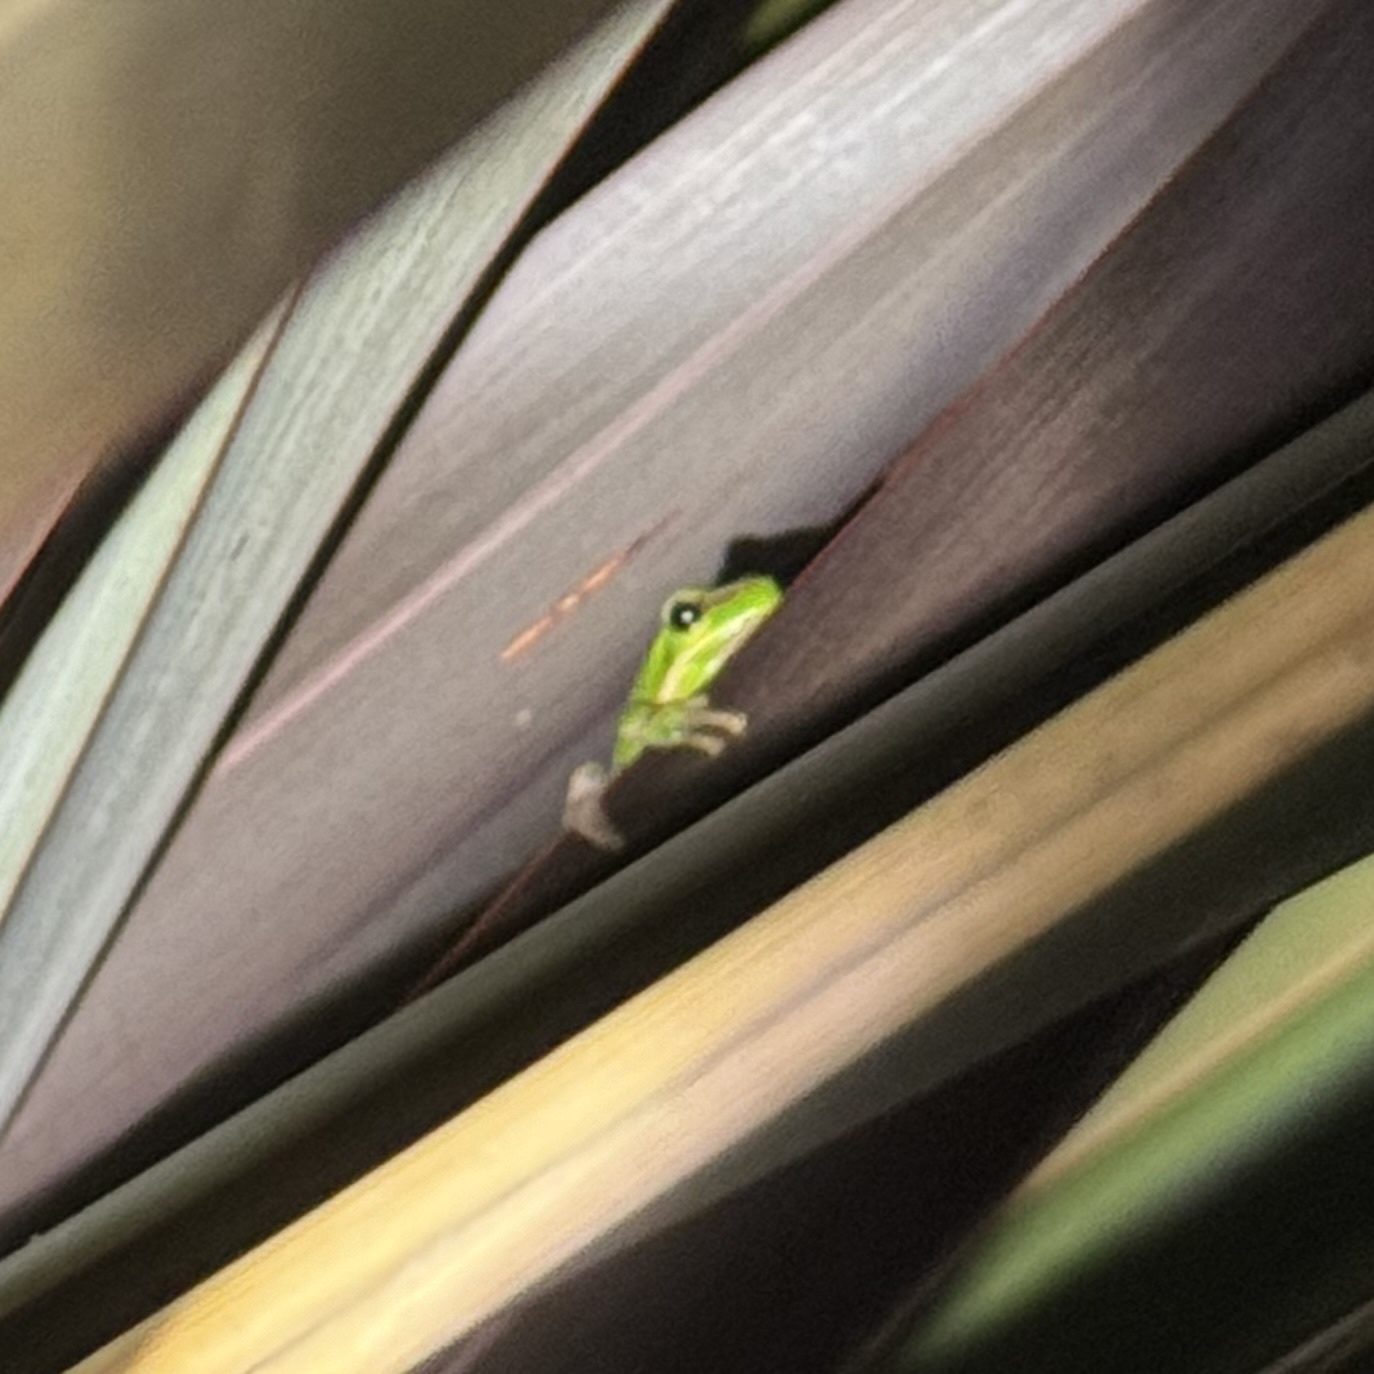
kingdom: Animalia
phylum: Chordata
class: Amphibia
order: Anura
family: Pelodryadidae
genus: Litoria
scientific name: Litoria fallax
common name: Eastern dwarf treefrog
